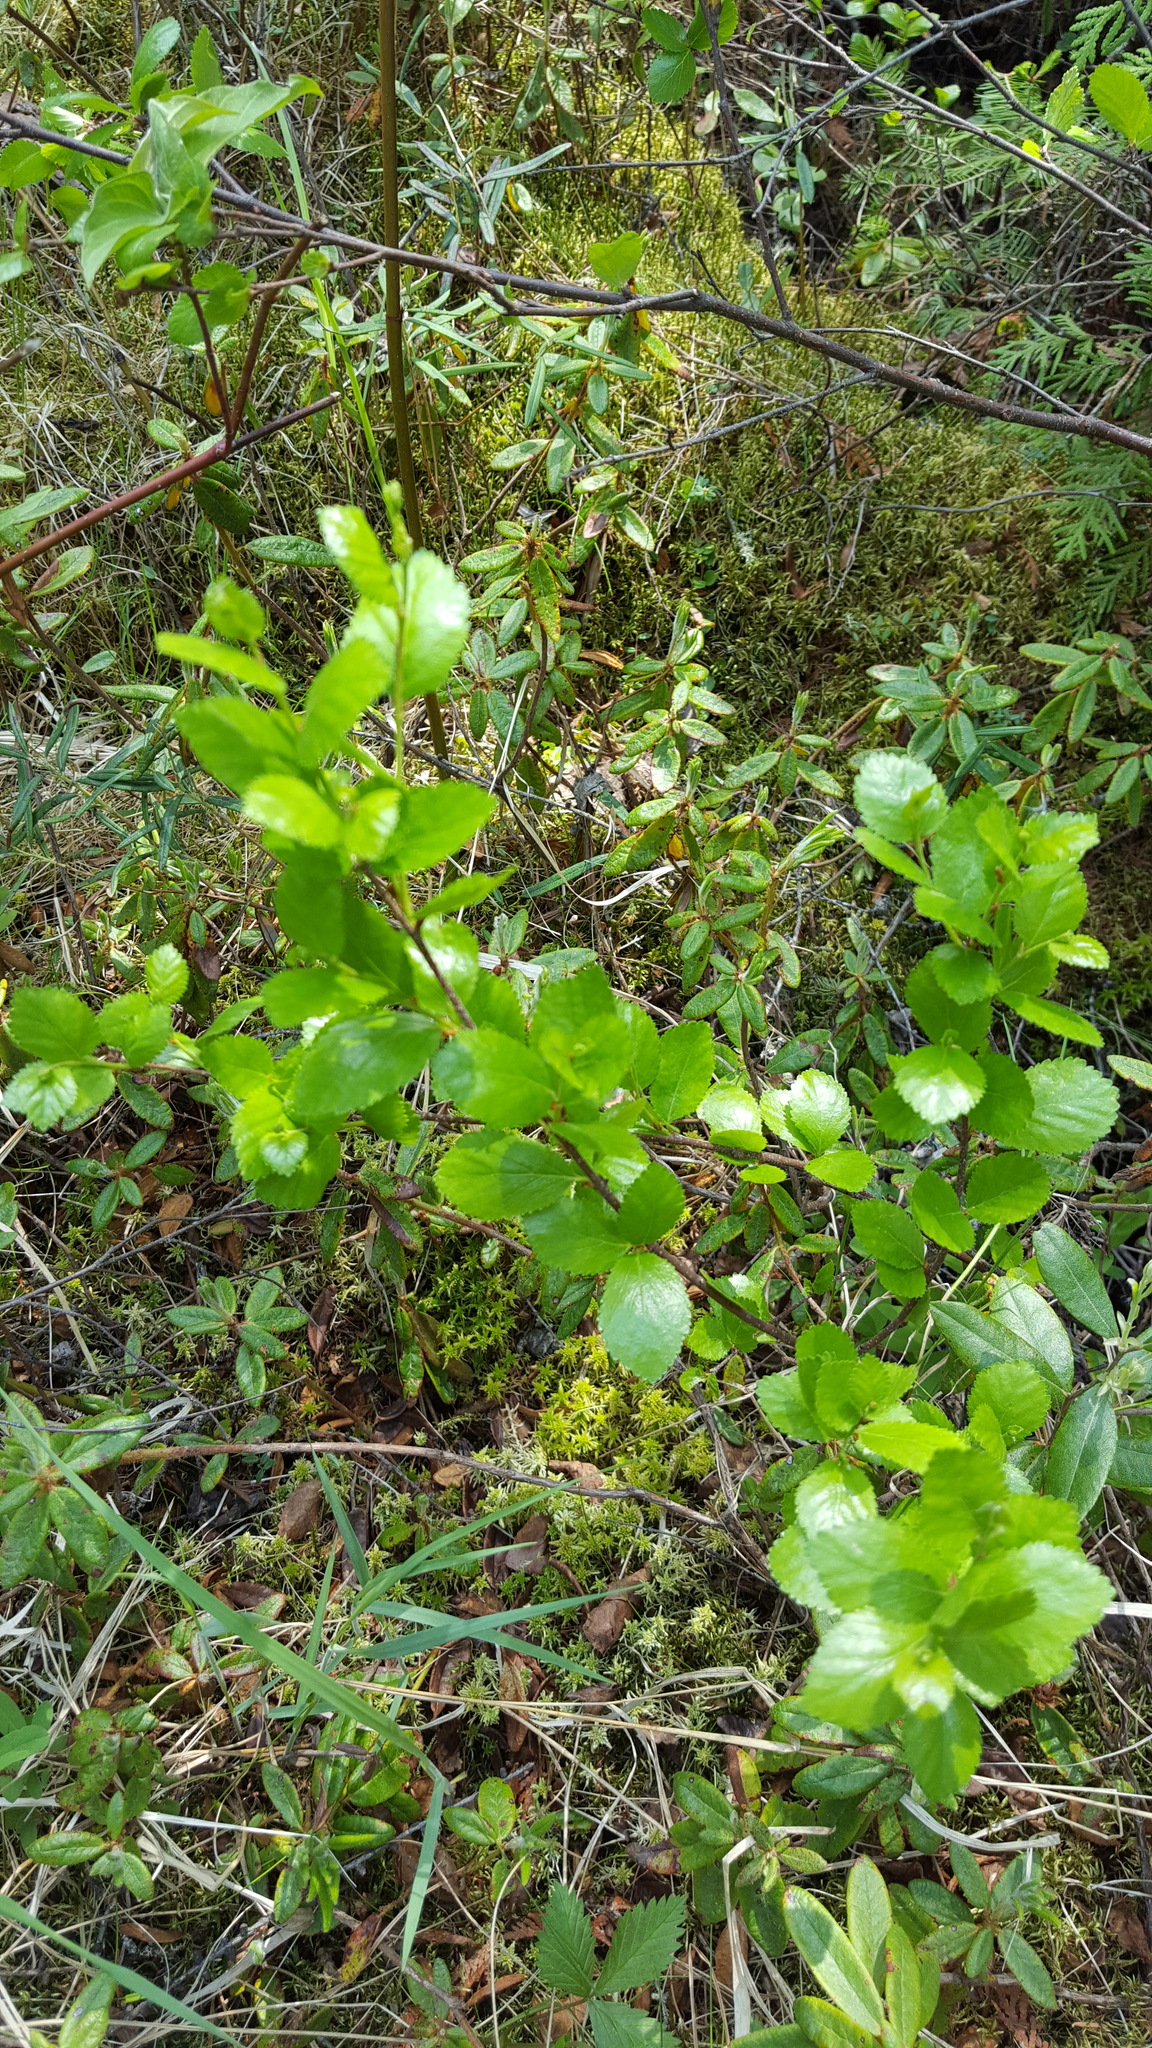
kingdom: Plantae
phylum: Tracheophyta
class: Magnoliopsida
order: Fagales
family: Betulaceae
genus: Betula
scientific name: Betula pumila
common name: Bog birch
